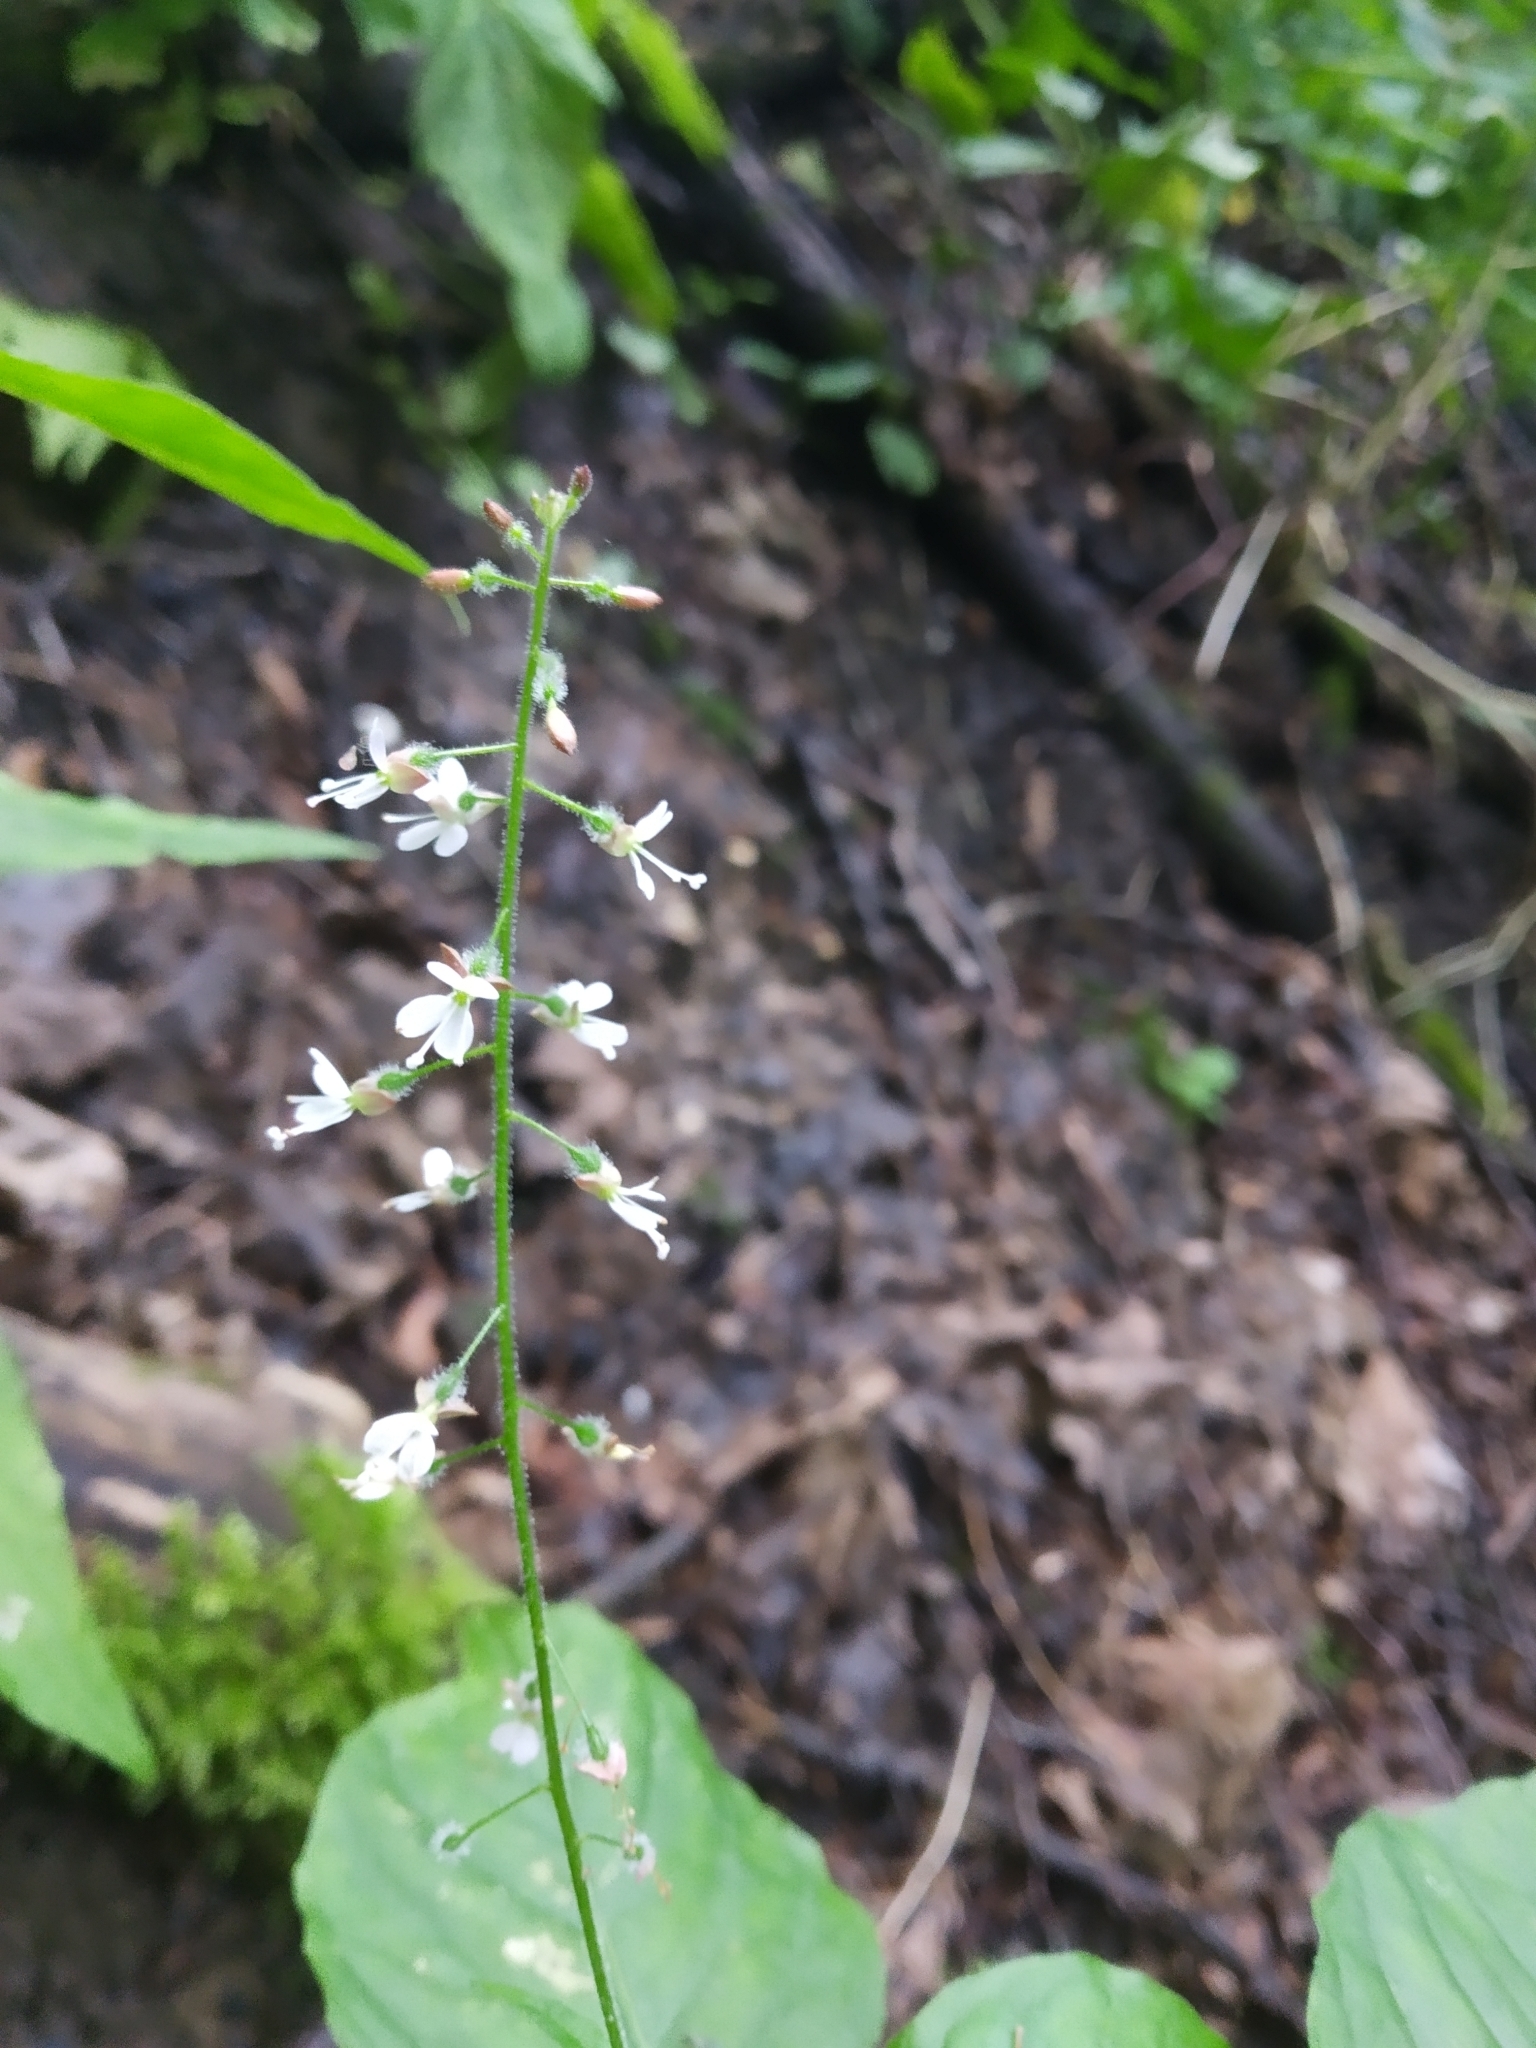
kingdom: Plantae
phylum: Tracheophyta
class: Magnoliopsida
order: Myrtales
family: Onagraceae
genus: Circaea
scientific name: Circaea lutetiana
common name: Enchanter's-nightshade
